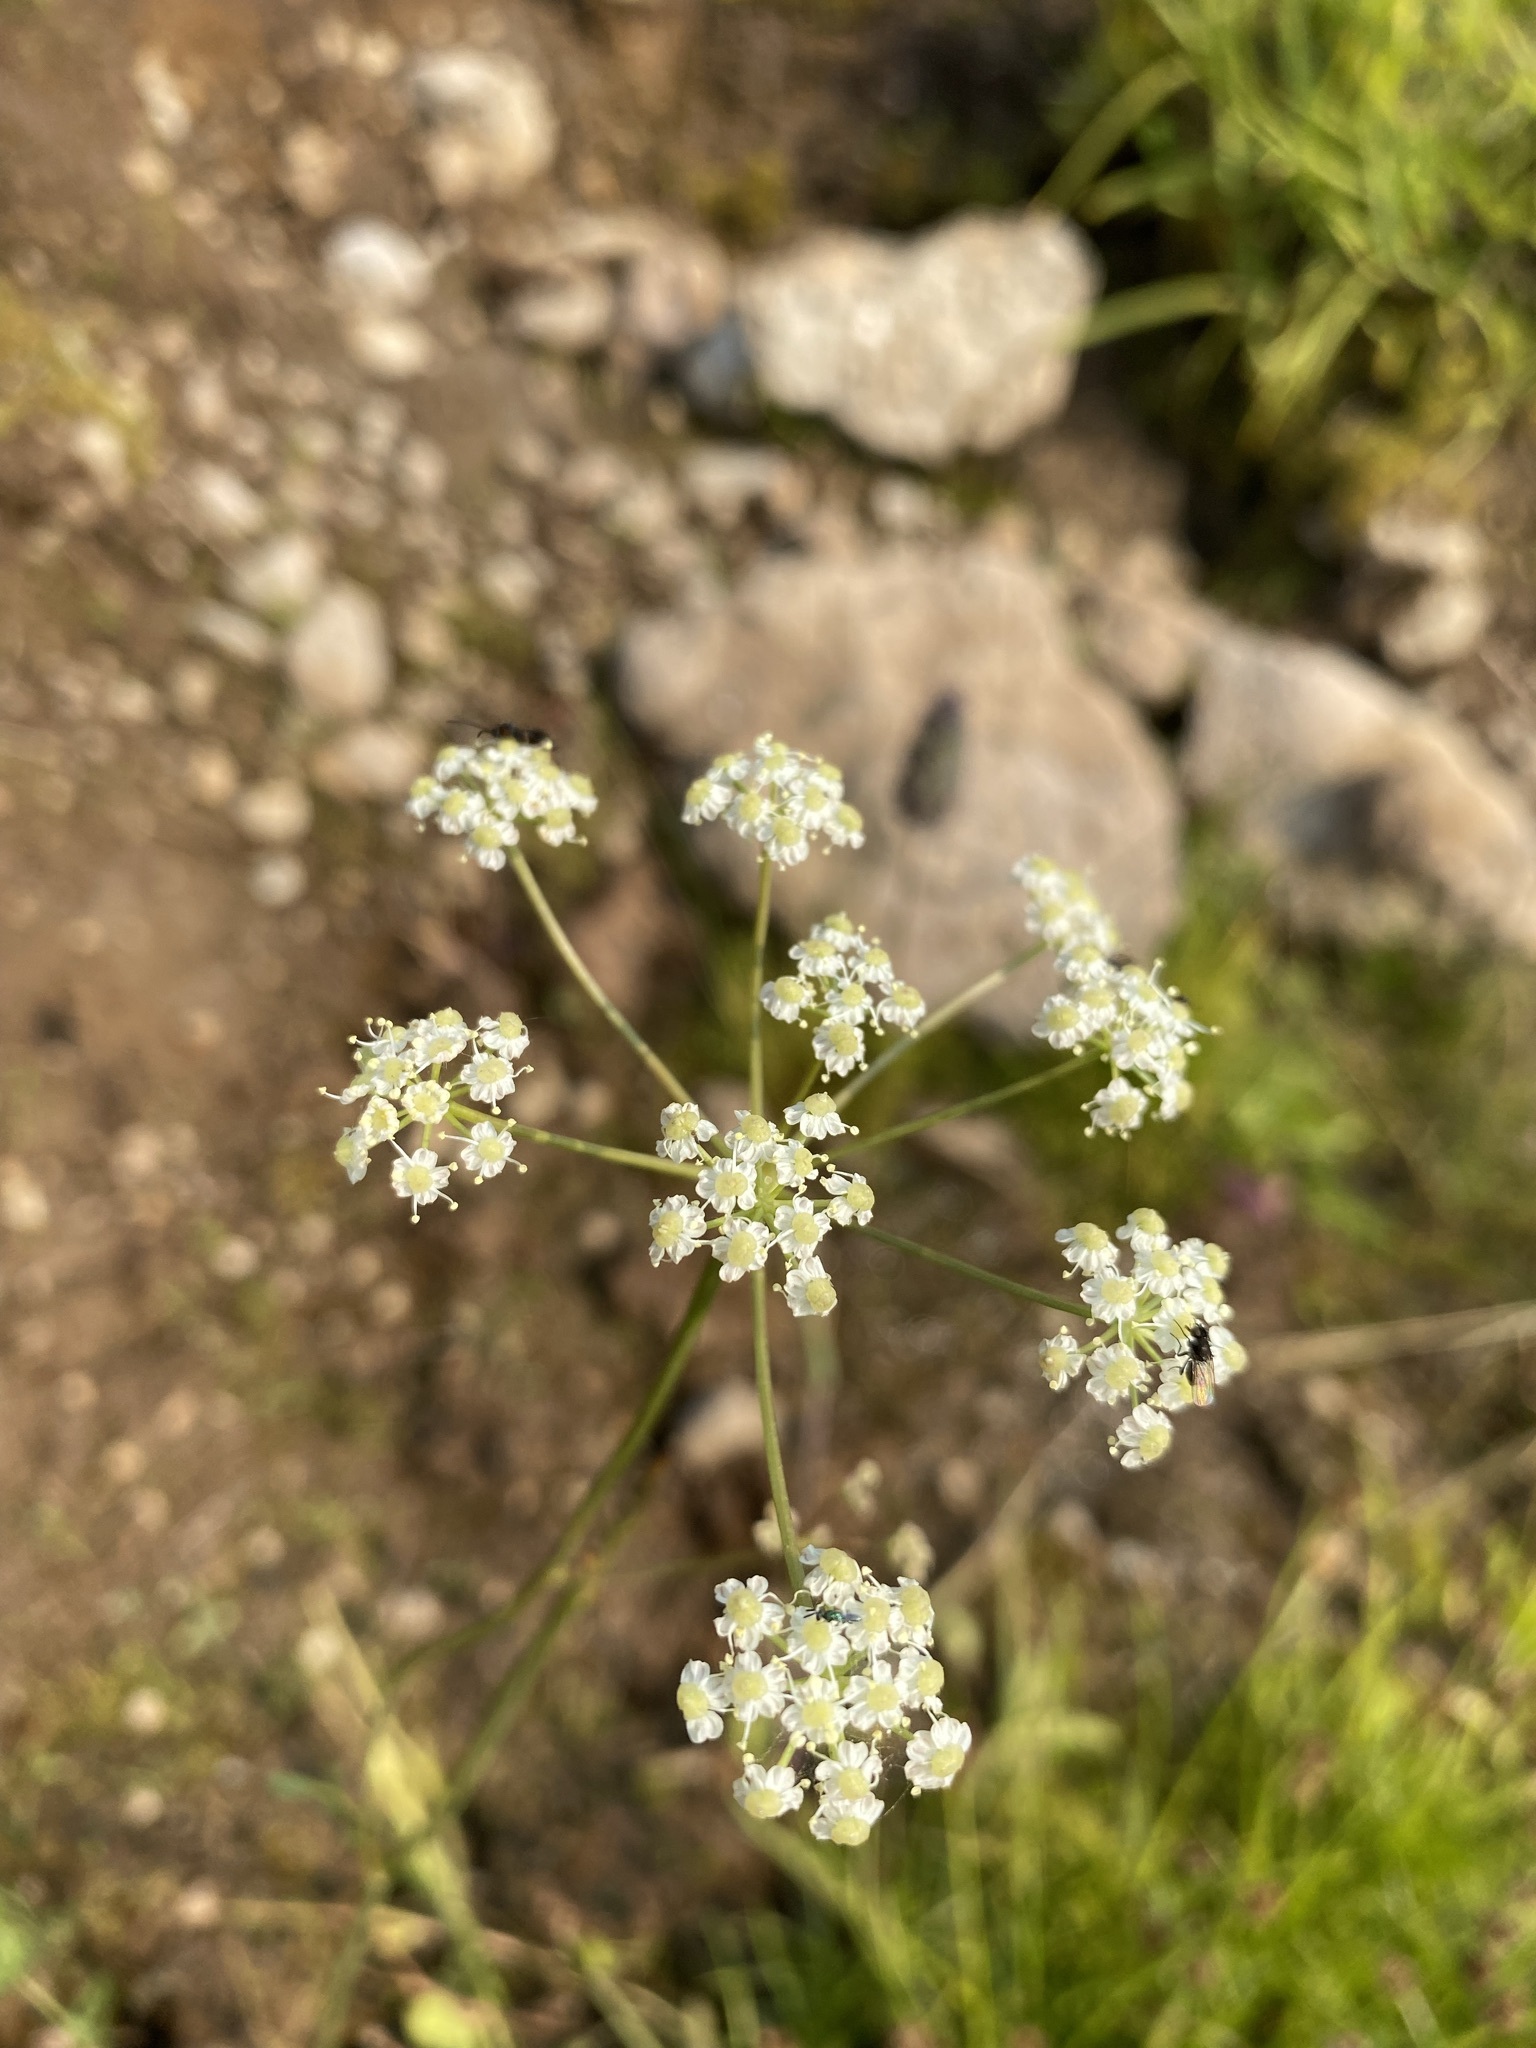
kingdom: Plantae
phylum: Tracheophyta
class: Magnoliopsida
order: Apiales
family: Apiaceae
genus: Ligusticum
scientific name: Ligusticum grayi
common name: Gray's licorice-root
